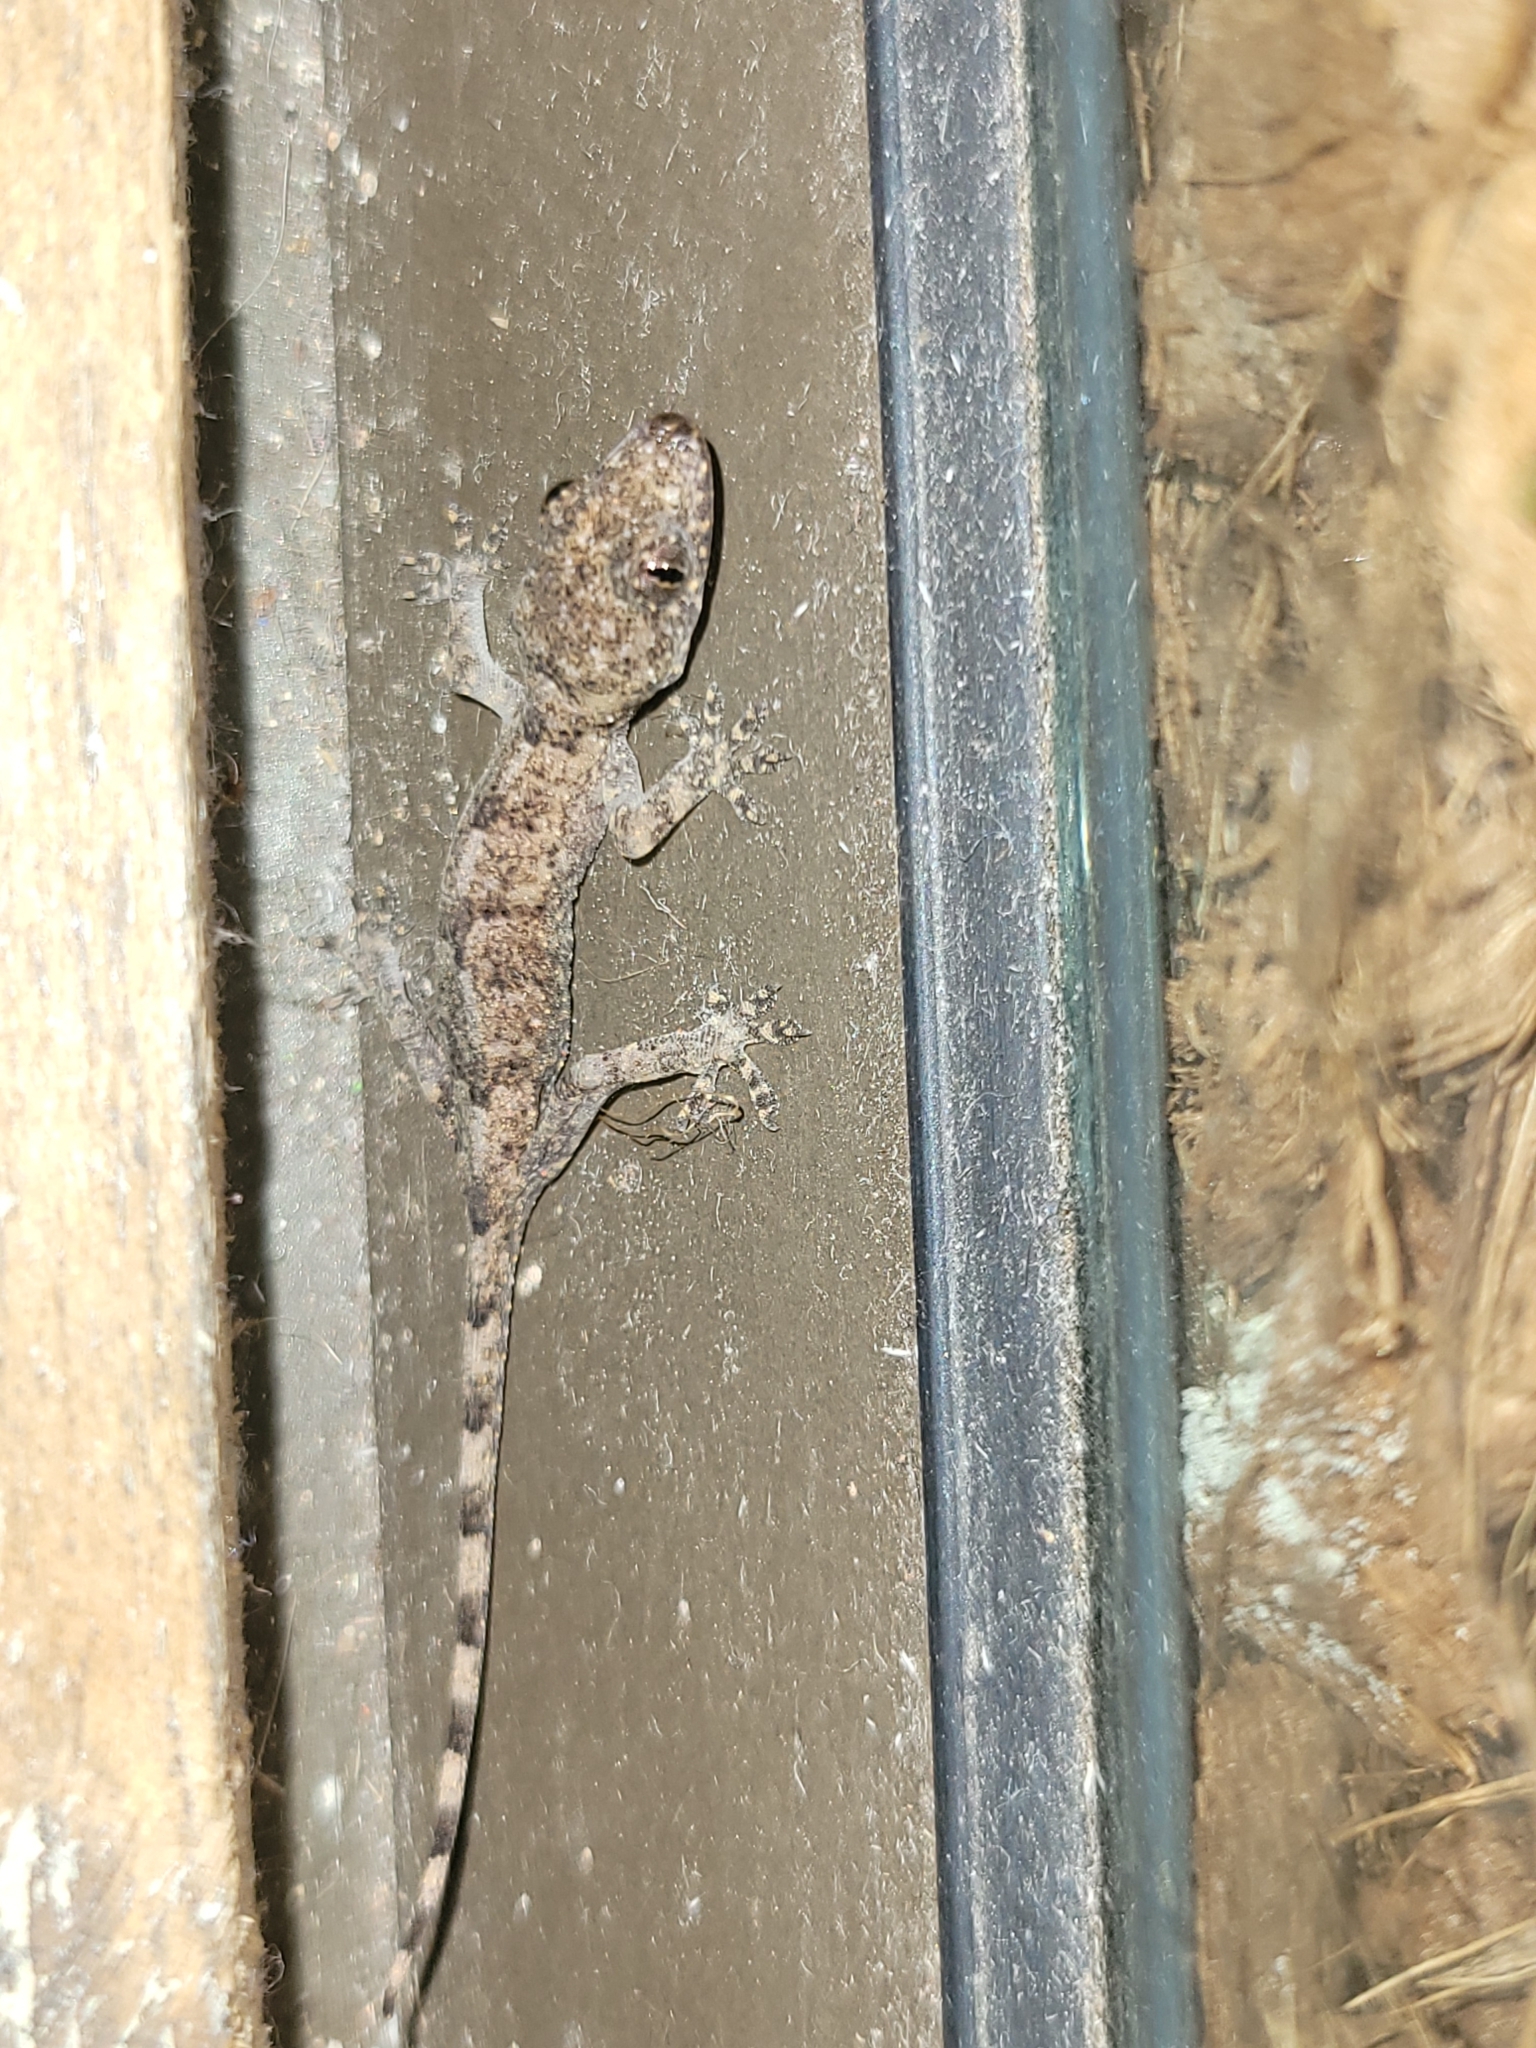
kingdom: Animalia
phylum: Chordata
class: Squamata
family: Gekkonidae
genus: Hemidactylus
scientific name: Hemidactylus mabouia
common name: House gecko
